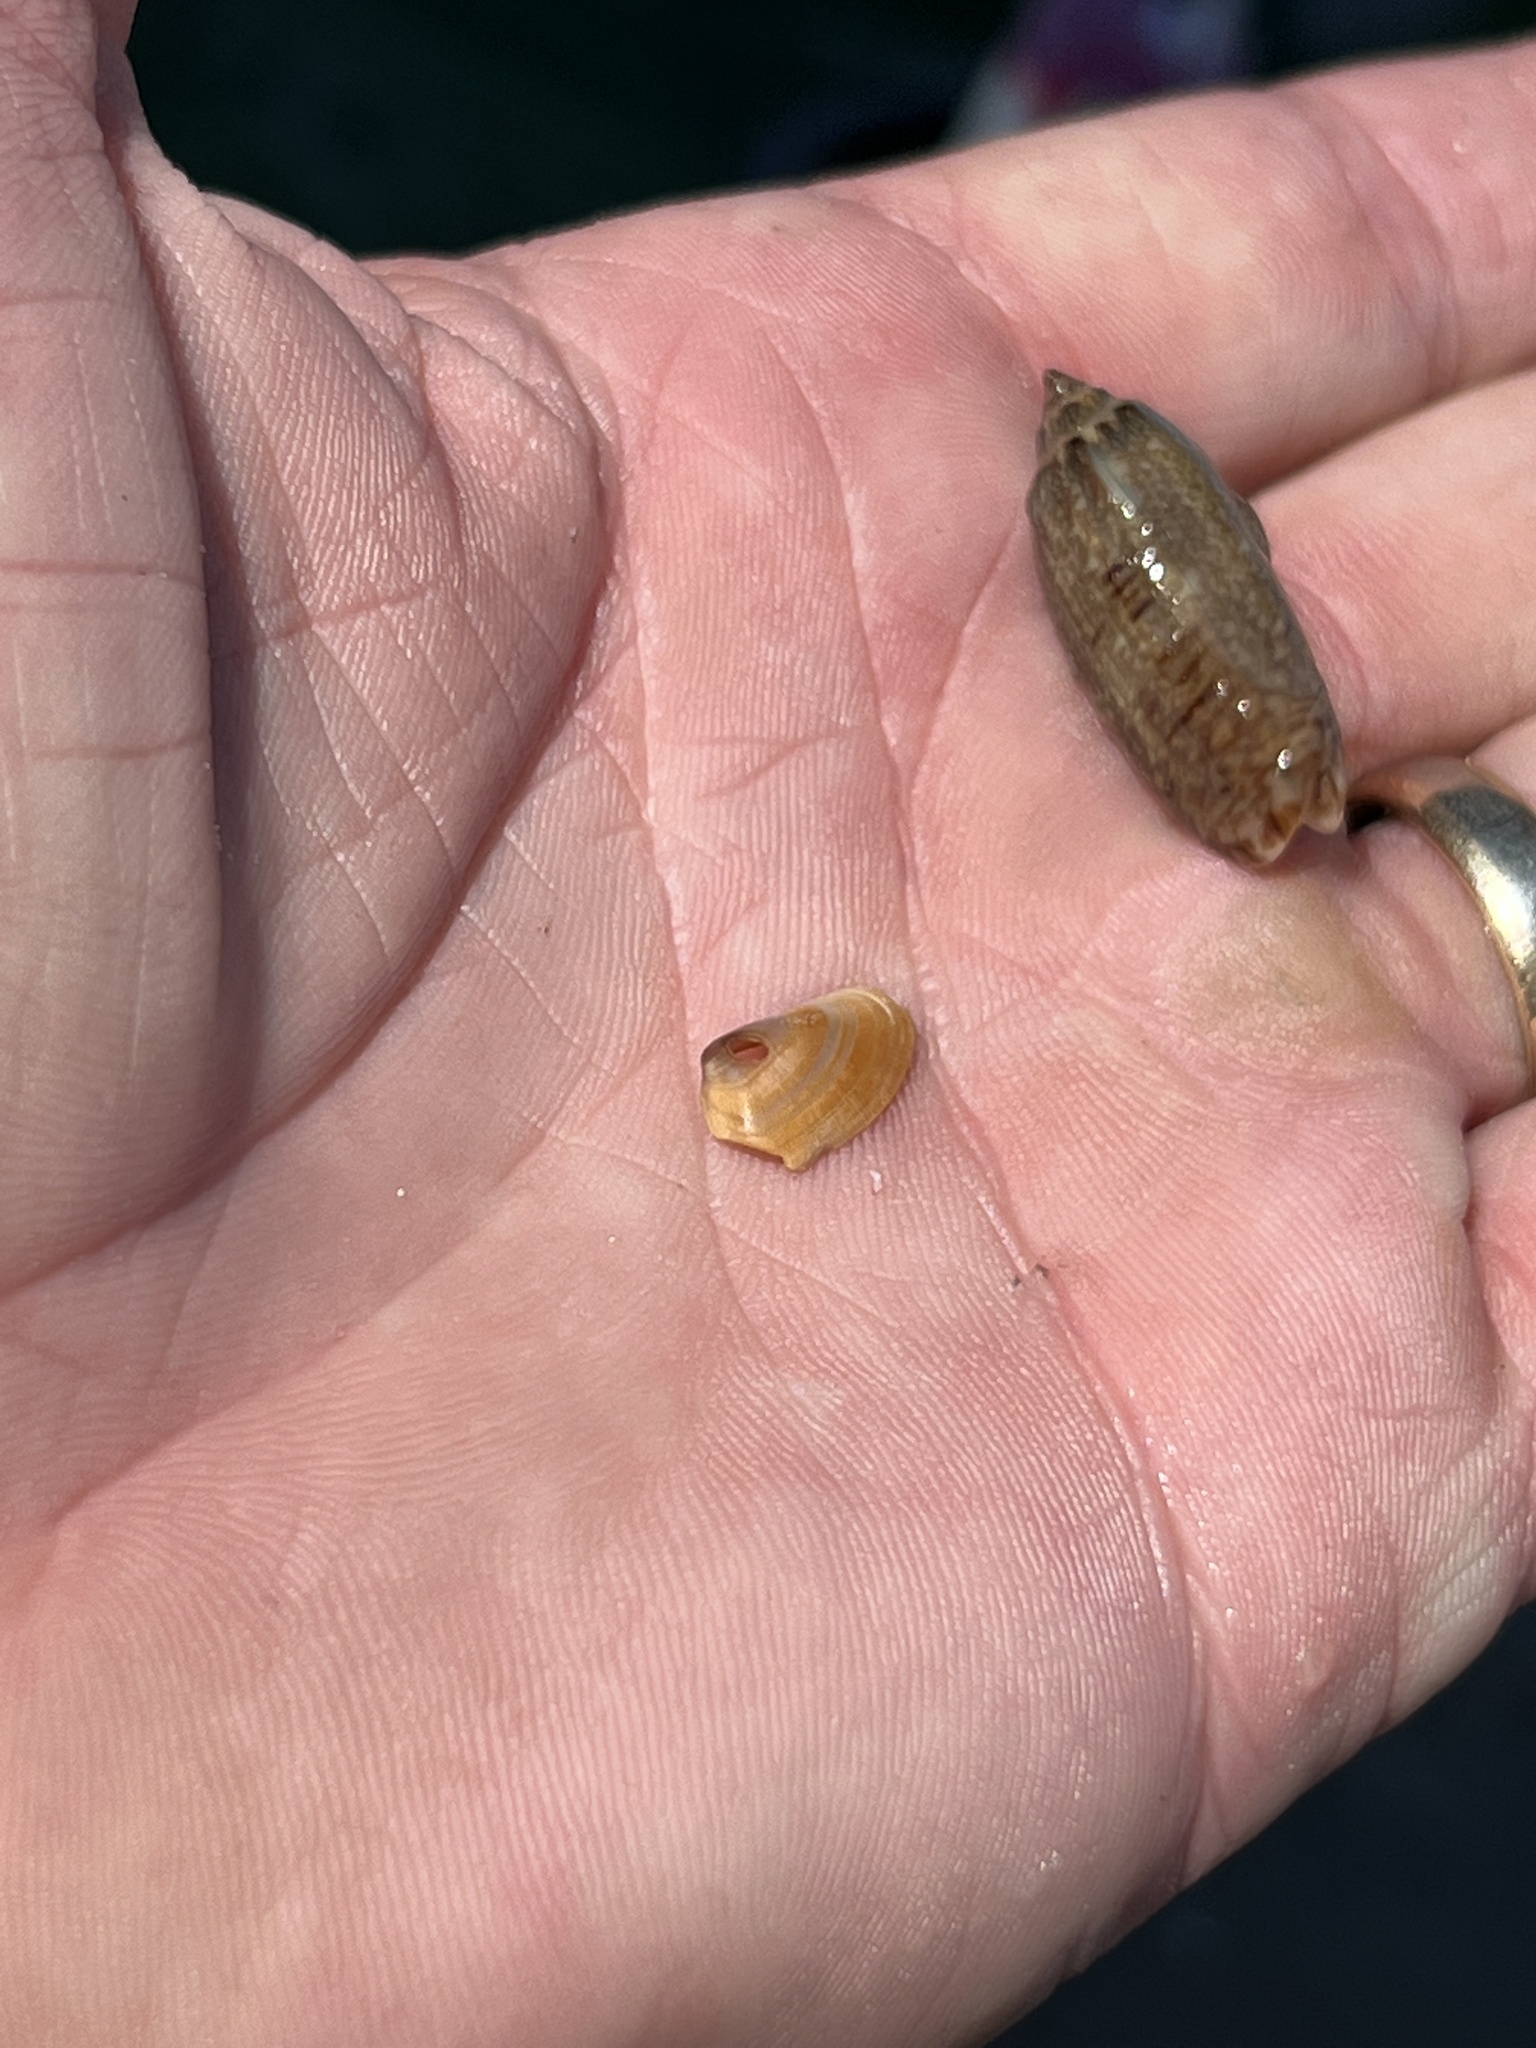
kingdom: Animalia
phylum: Mollusca
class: Bivalvia
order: Cardiida
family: Donacidae
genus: Donax
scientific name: Donax variabilis
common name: Butterfly shell
